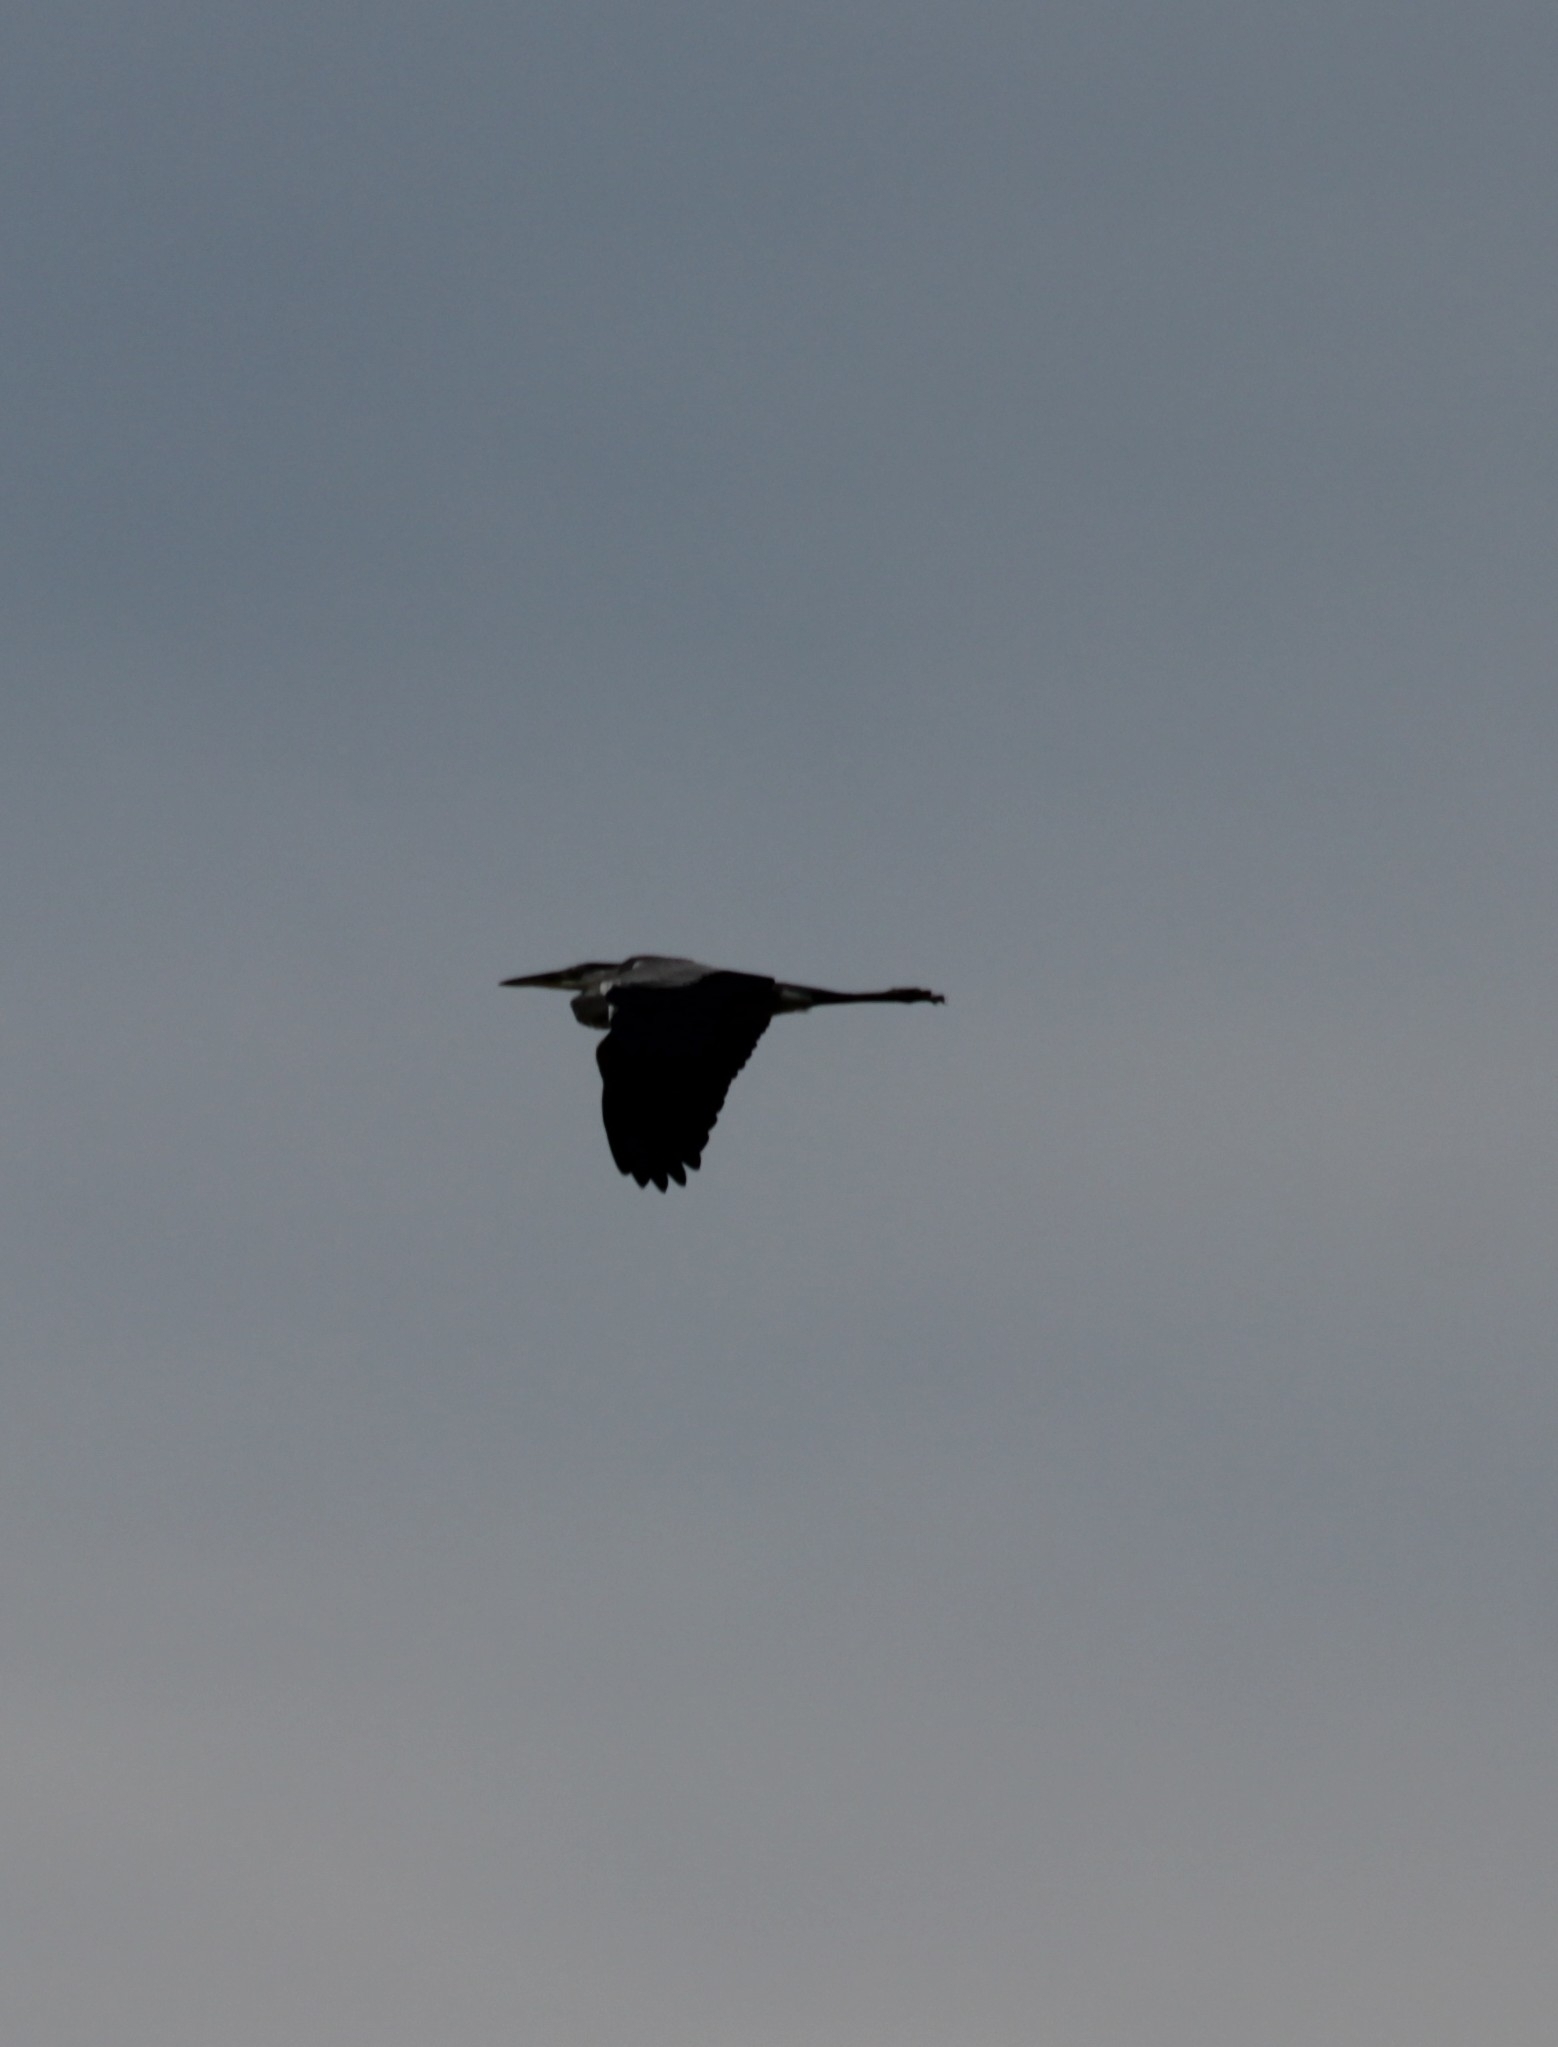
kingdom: Animalia
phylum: Chordata
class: Aves
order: Pelecaniformes
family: Ardeidae
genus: Ardea
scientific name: Ardea cinerea
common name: Grey heron
